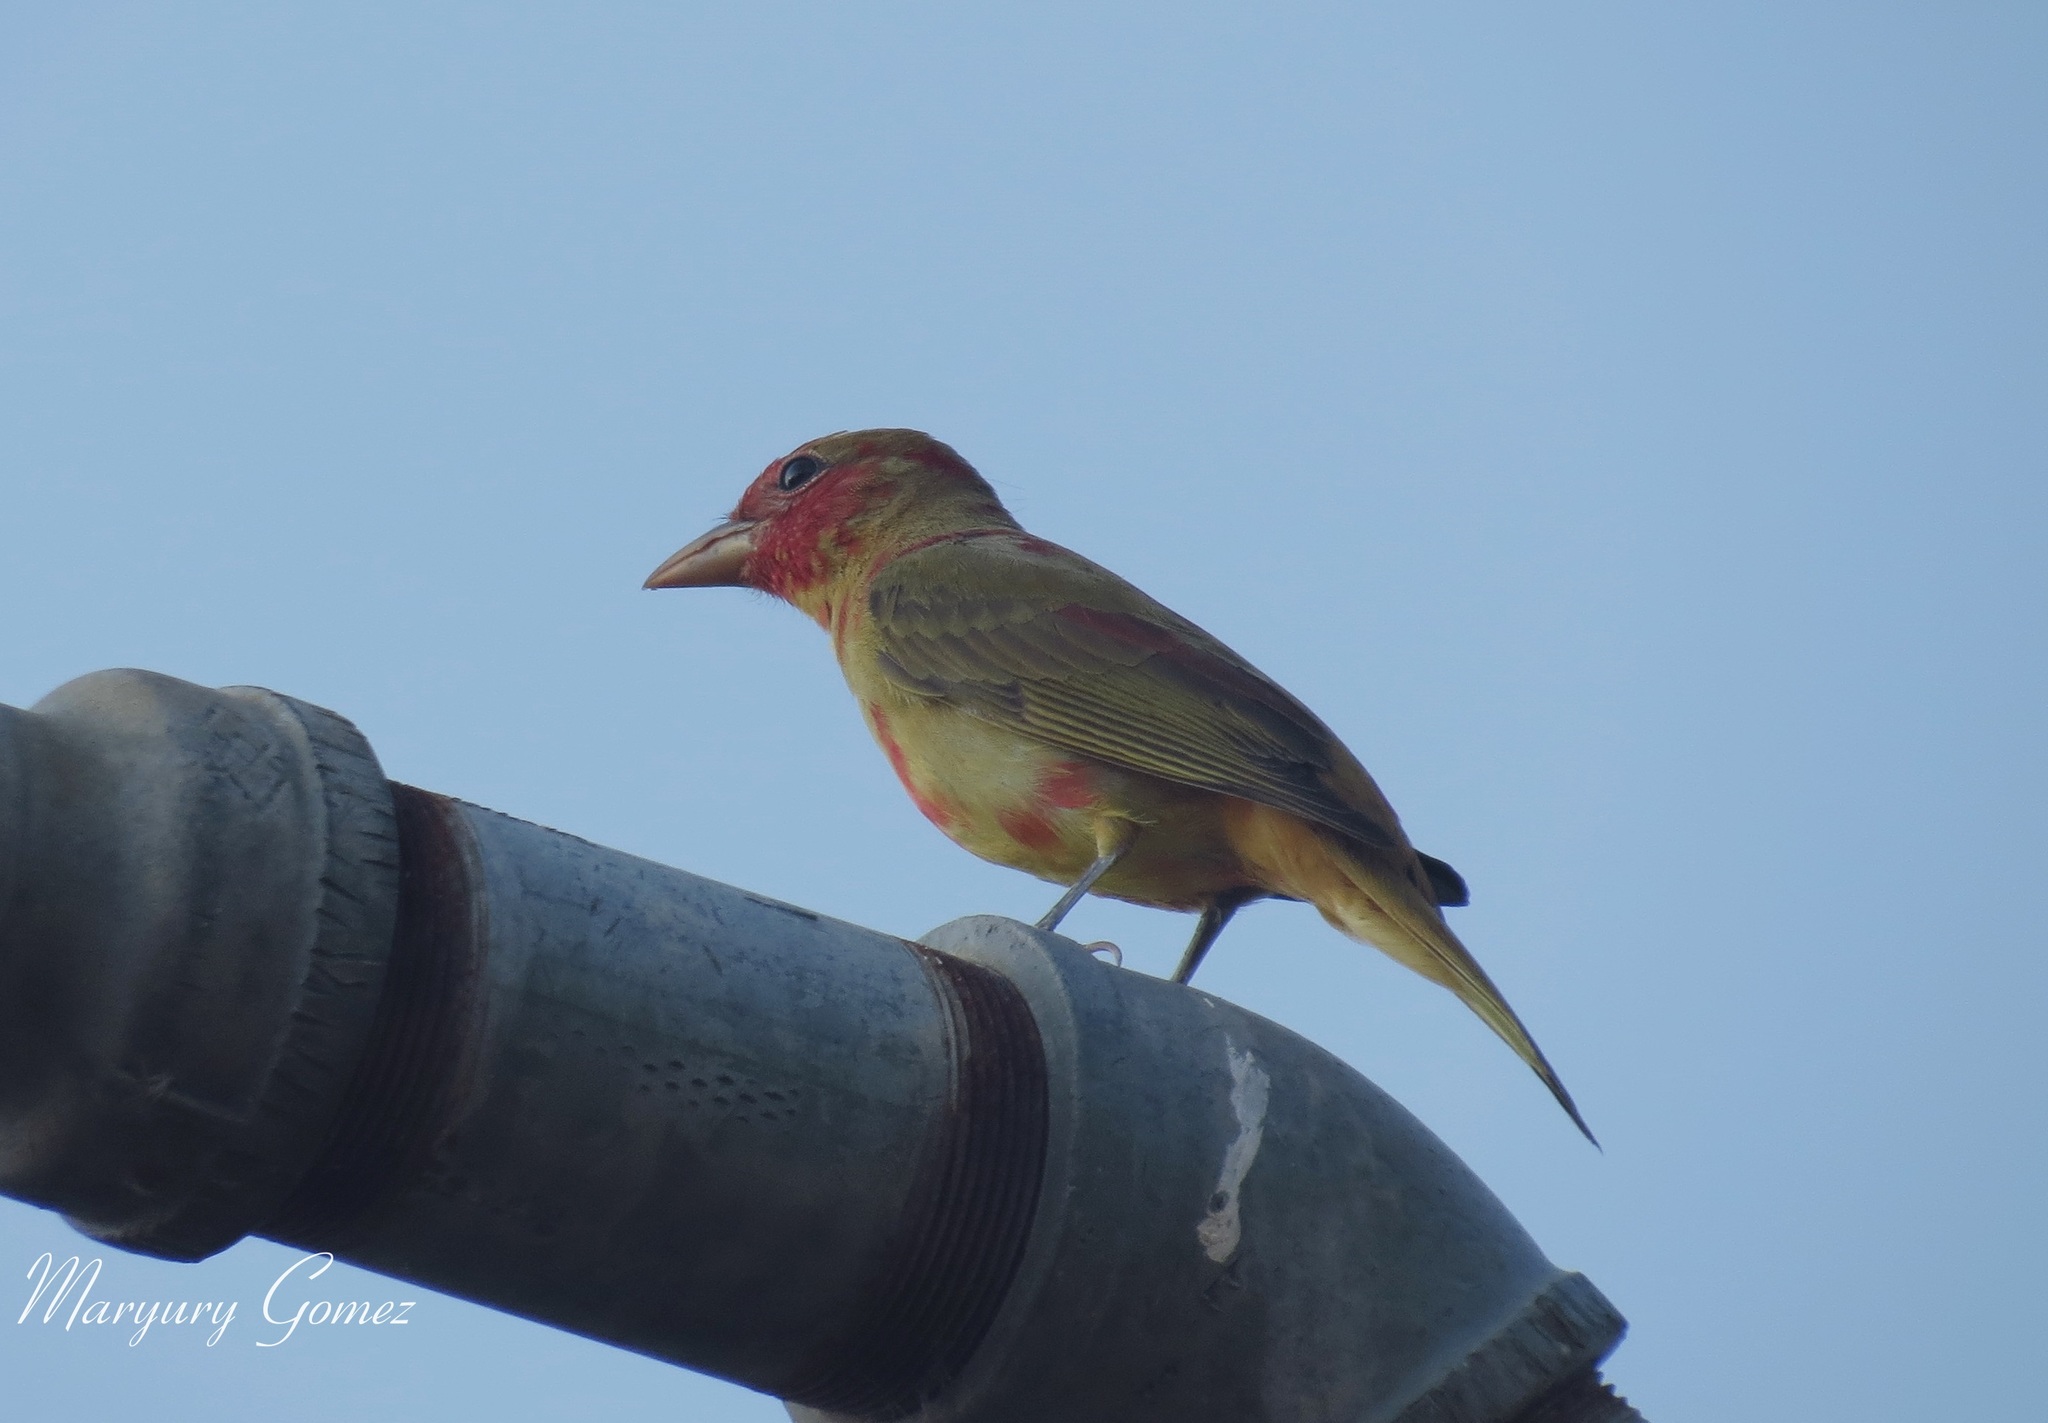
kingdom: Animalia
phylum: Chordata
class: Aves
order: Passeriformes
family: Cardinalidae
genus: Piranga
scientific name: Piranga rubra
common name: Summer tanager
